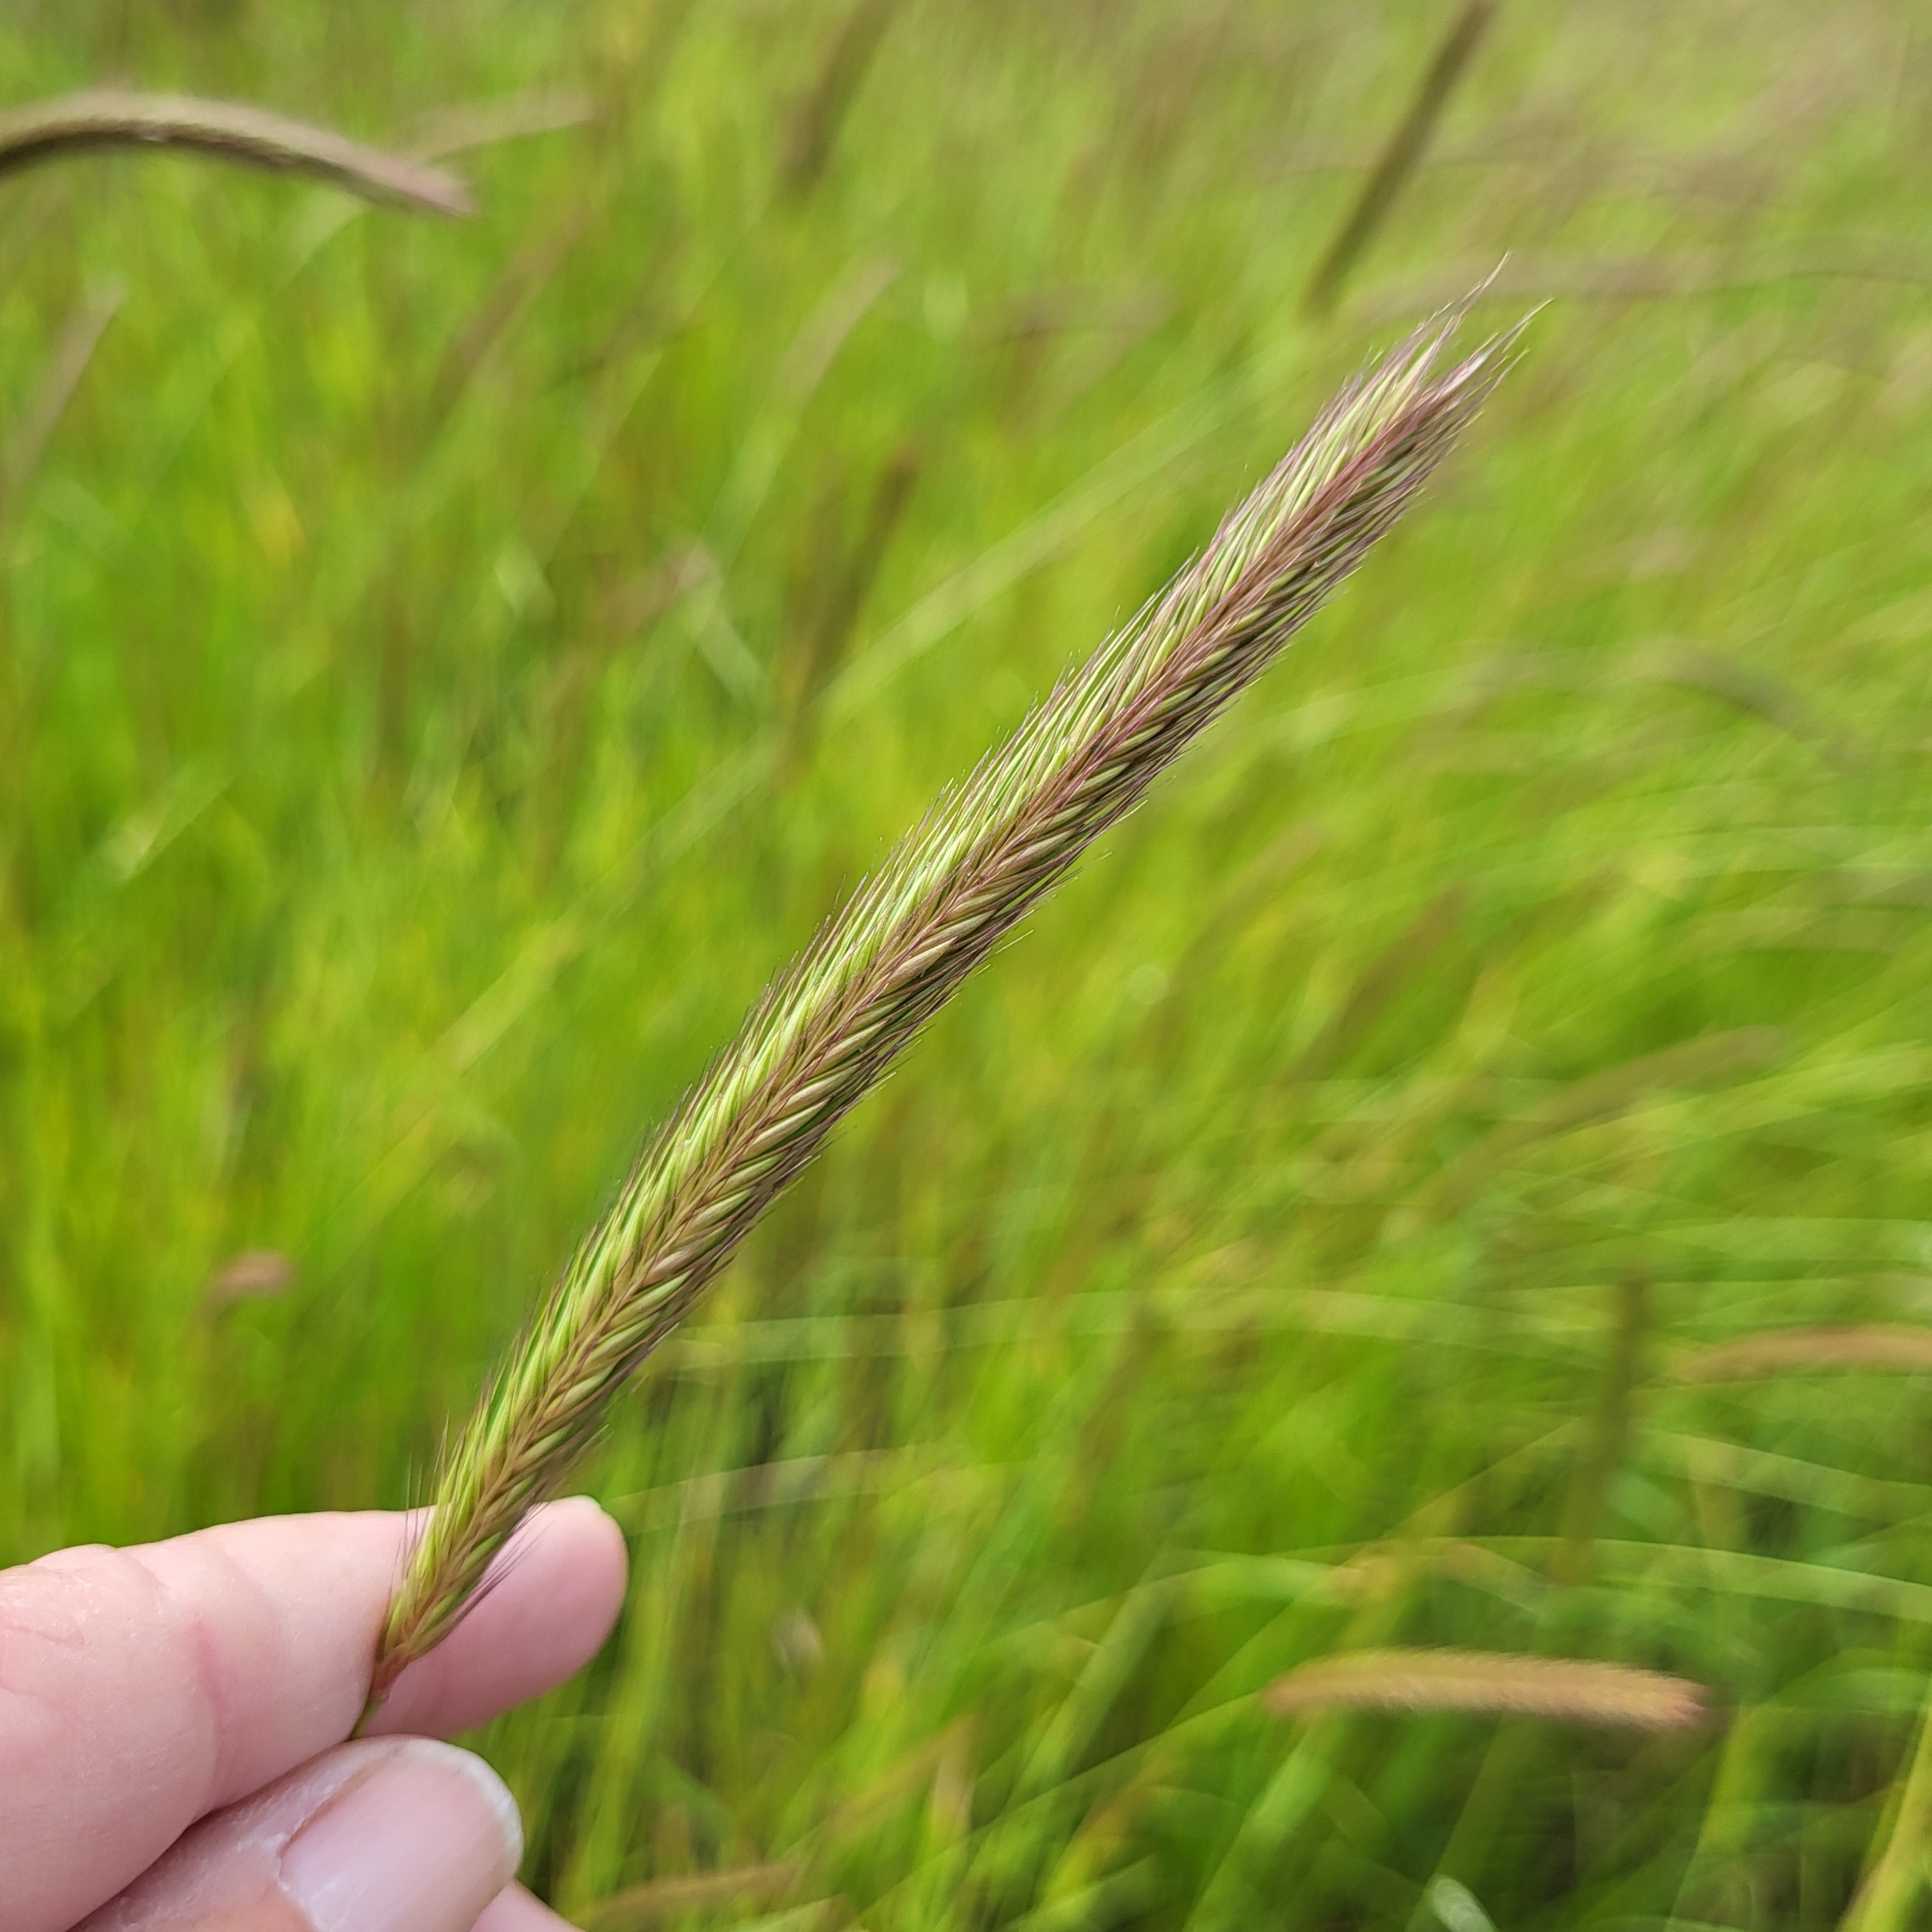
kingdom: Plantae
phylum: Tracheophyta
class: Liliopsida
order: Poales
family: Poaceae
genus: Hordeum
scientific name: Hordeum brachyantherum
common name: Meadow barley
